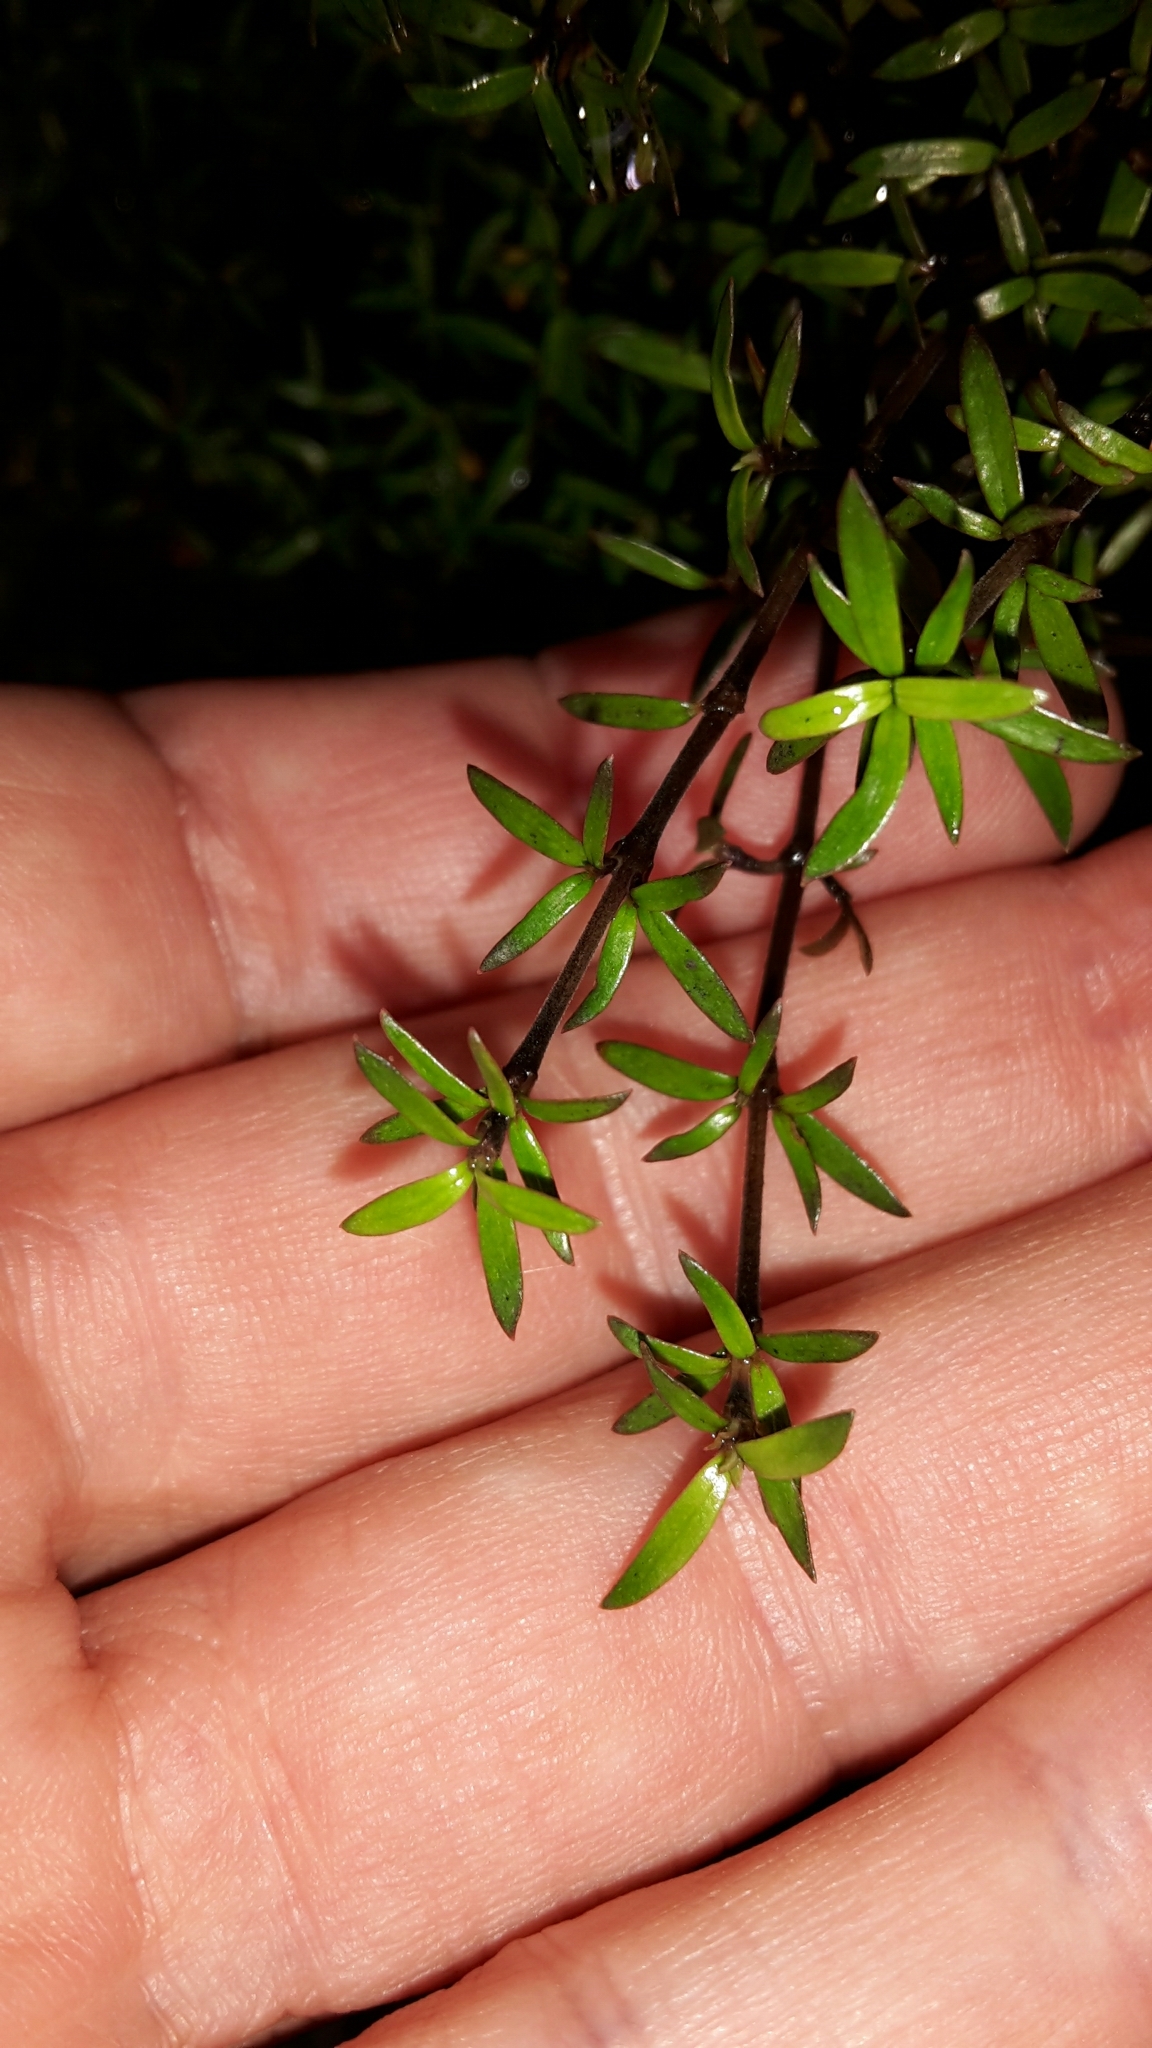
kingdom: Plantae
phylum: Tracheophyta
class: Magnoliopsida
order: Gentianales
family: Rubiaceae
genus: Coprosma
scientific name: Coprosma microcarpa
